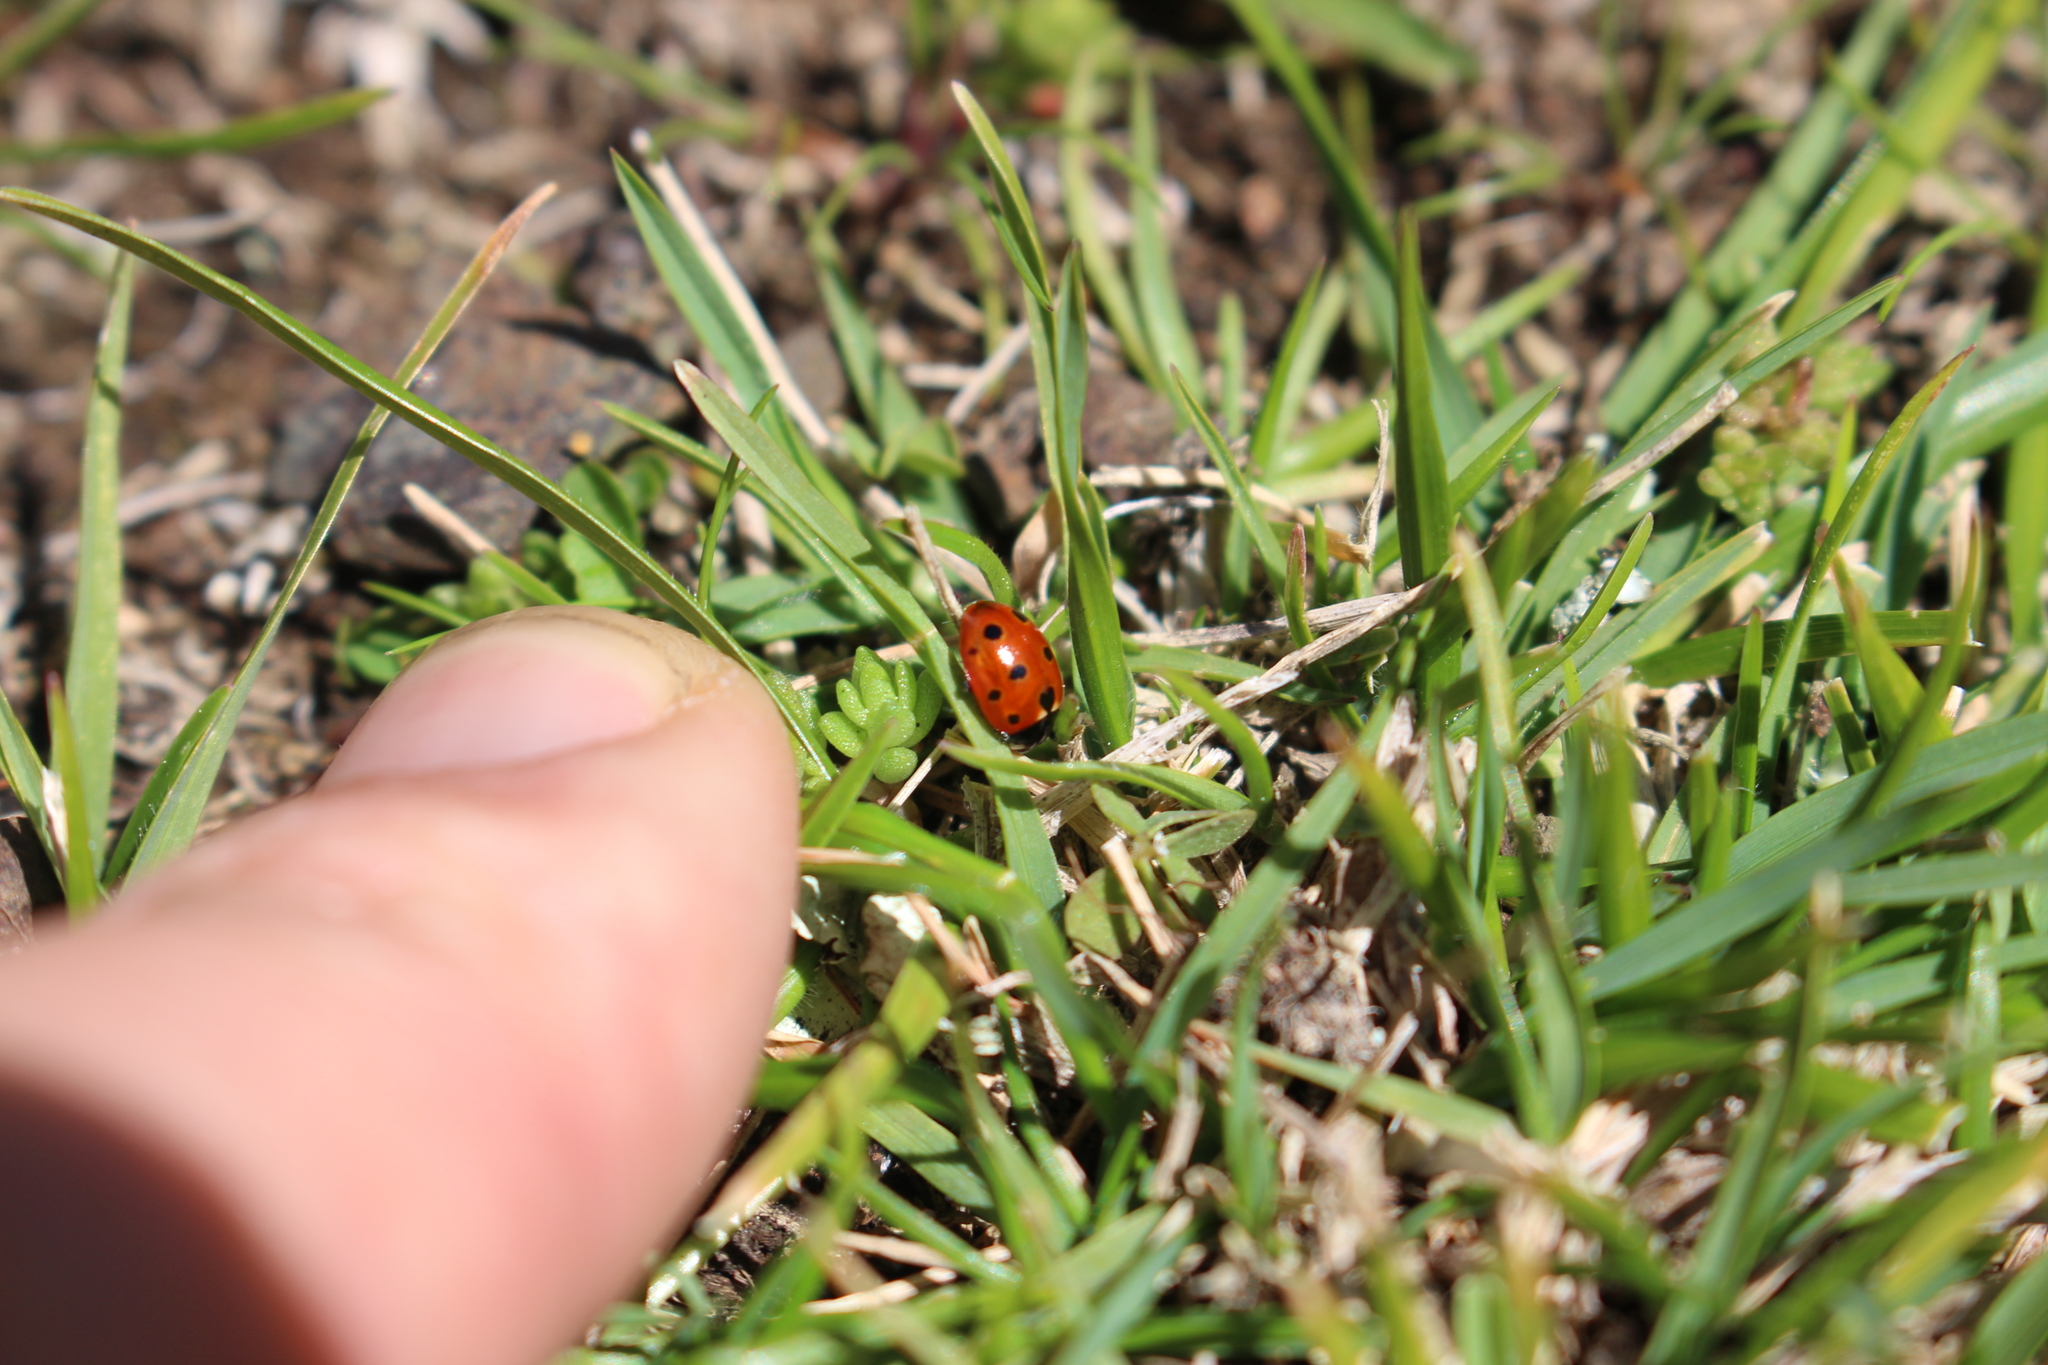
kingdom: Animalia
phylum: Arthropoda
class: Insecta
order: Coleoptera
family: Coccinellidae
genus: Coccinella
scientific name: Coccinella undecimpunctata
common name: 11-spot ladybird
